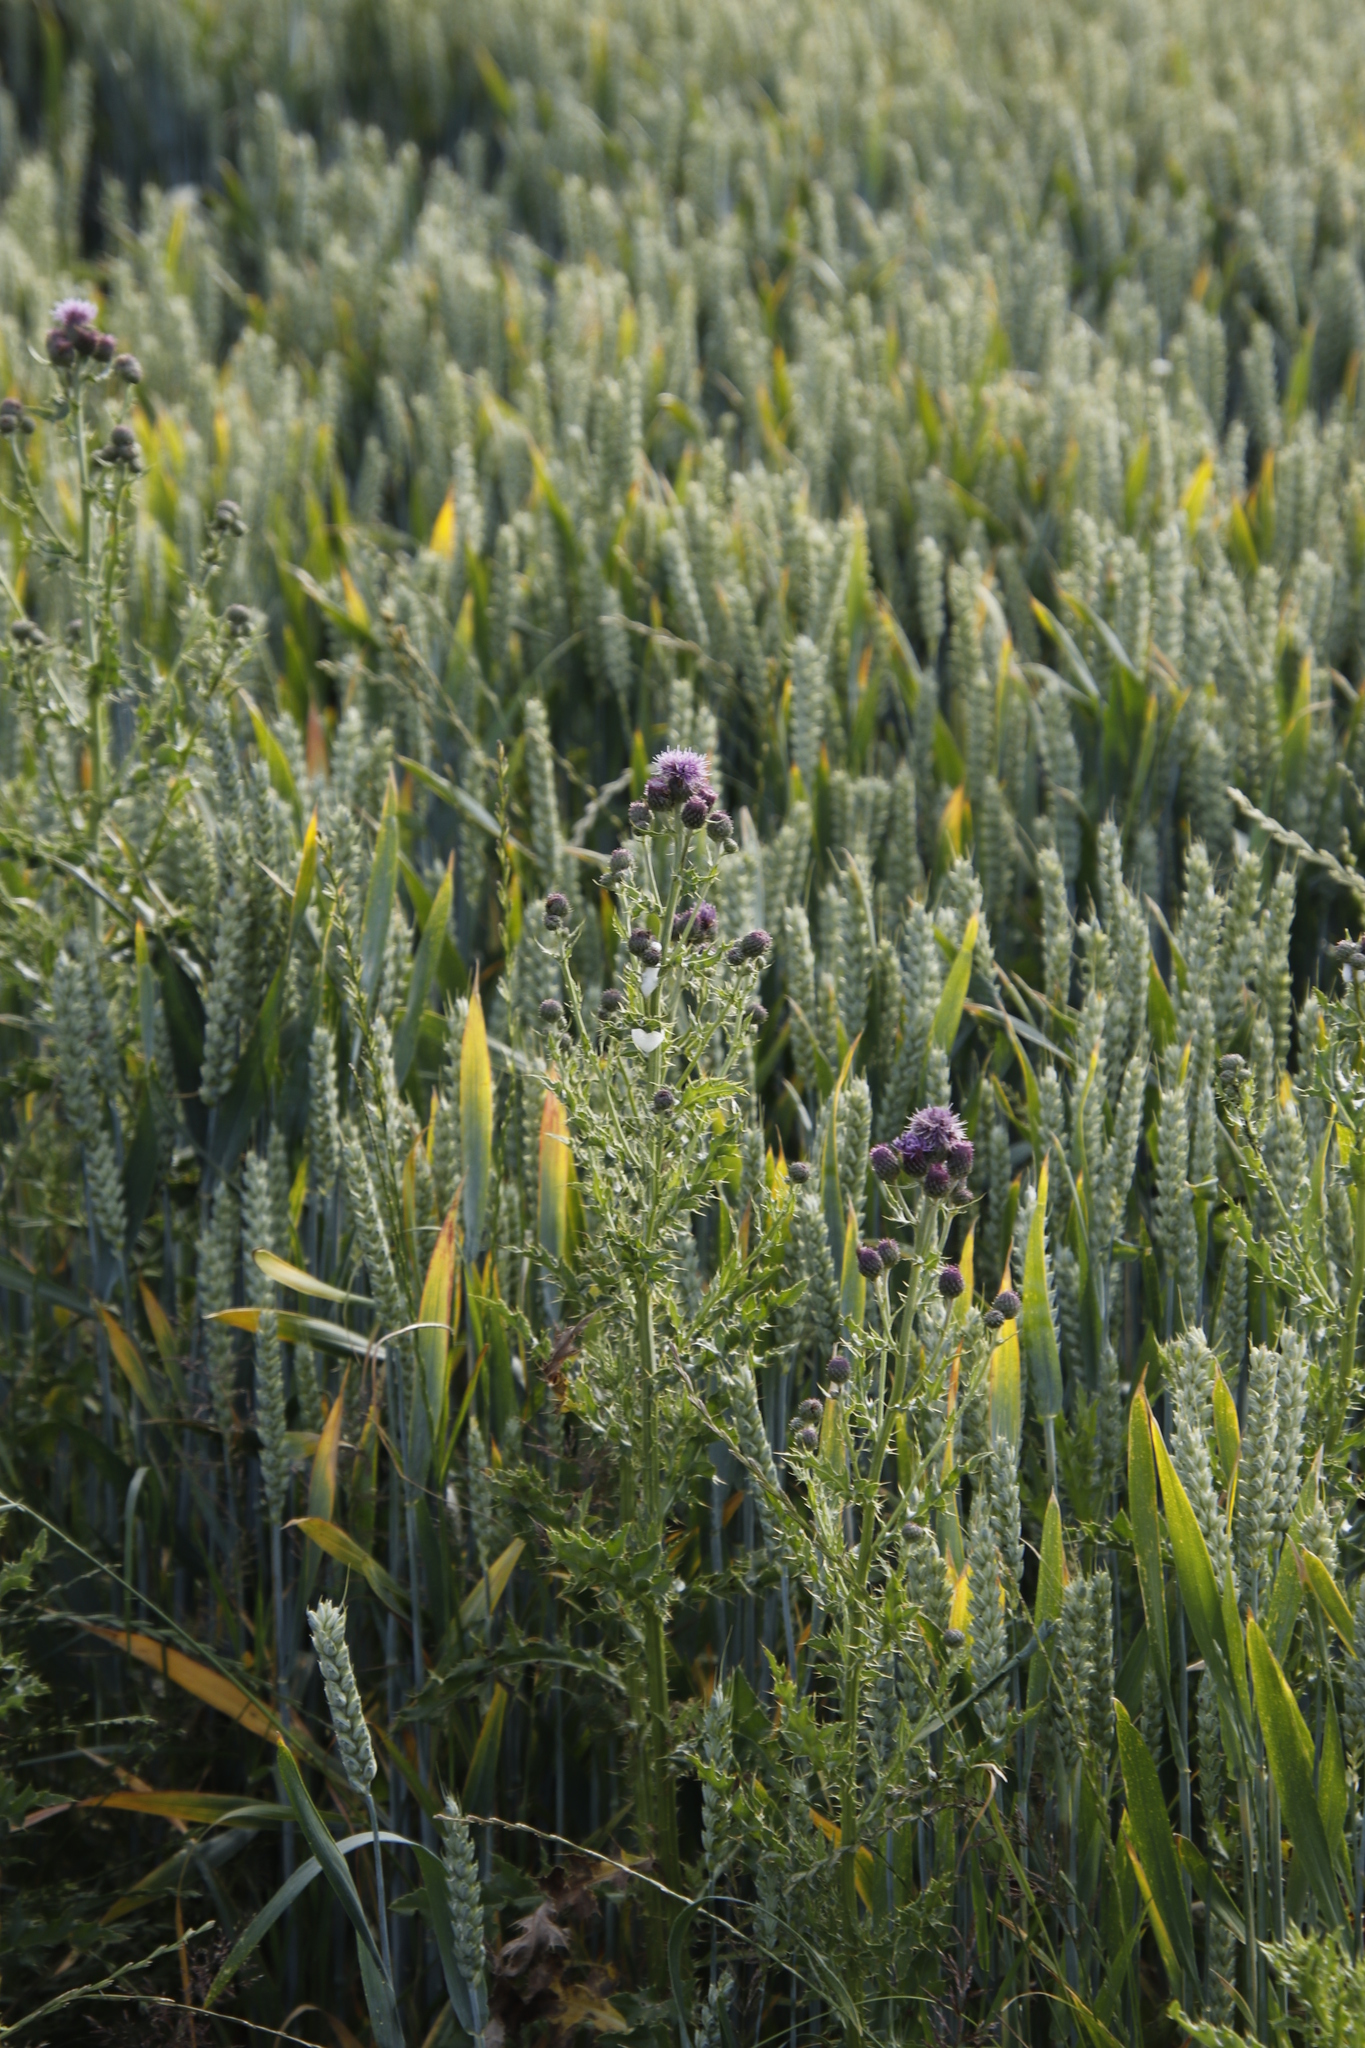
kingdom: Plantae
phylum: Tracheophyta
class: Magnoliopsida
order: Asterales
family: Asteraceae
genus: Cirsium
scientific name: Cirsium arvense
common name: Creeping thistle
